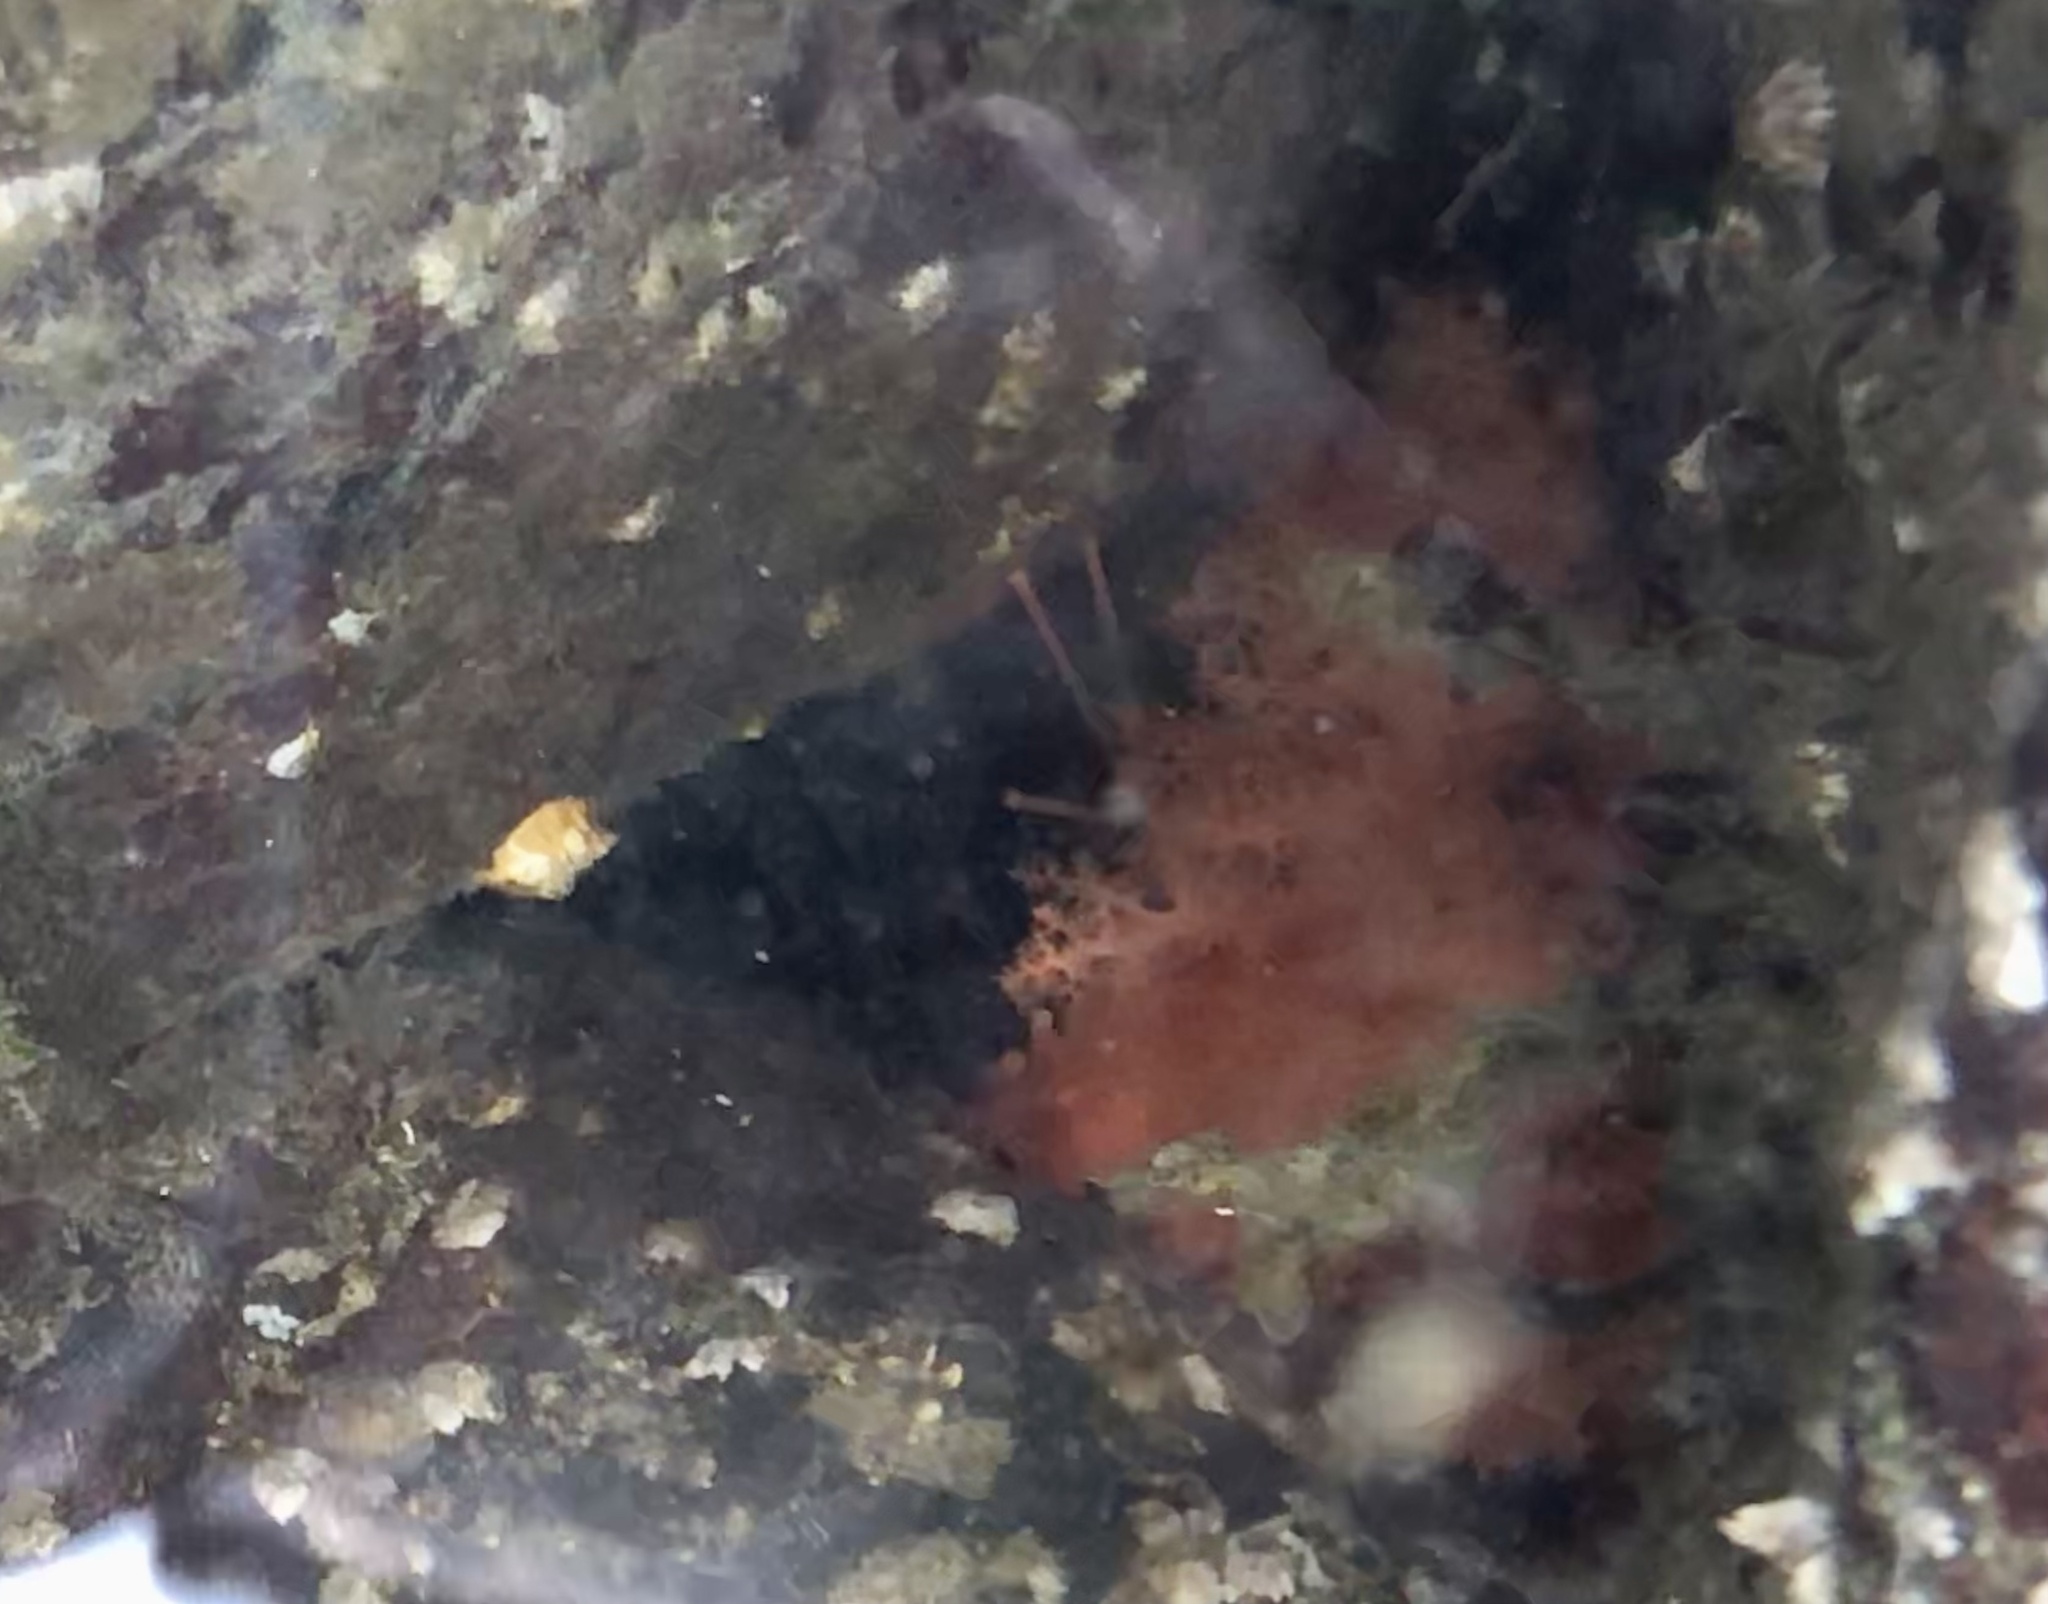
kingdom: Animalia
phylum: Echinodermata
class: Holothuroidea
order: Dendrochirotida
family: Cucumariidae
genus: Cucumaria
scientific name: Cucumaria miniata
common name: Orange sea cucumber
